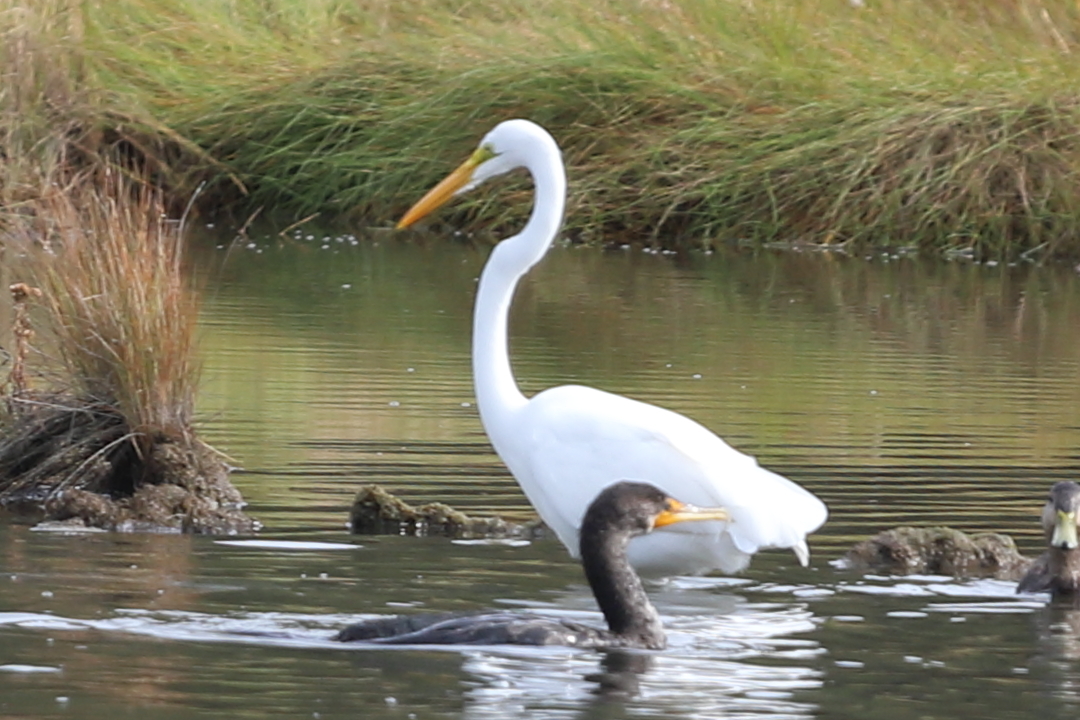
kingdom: Animalia
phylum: Chordata
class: Aves
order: Pelecaniformes
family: Ardeidae
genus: Ardea
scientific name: Ardea alba
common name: Great egret
